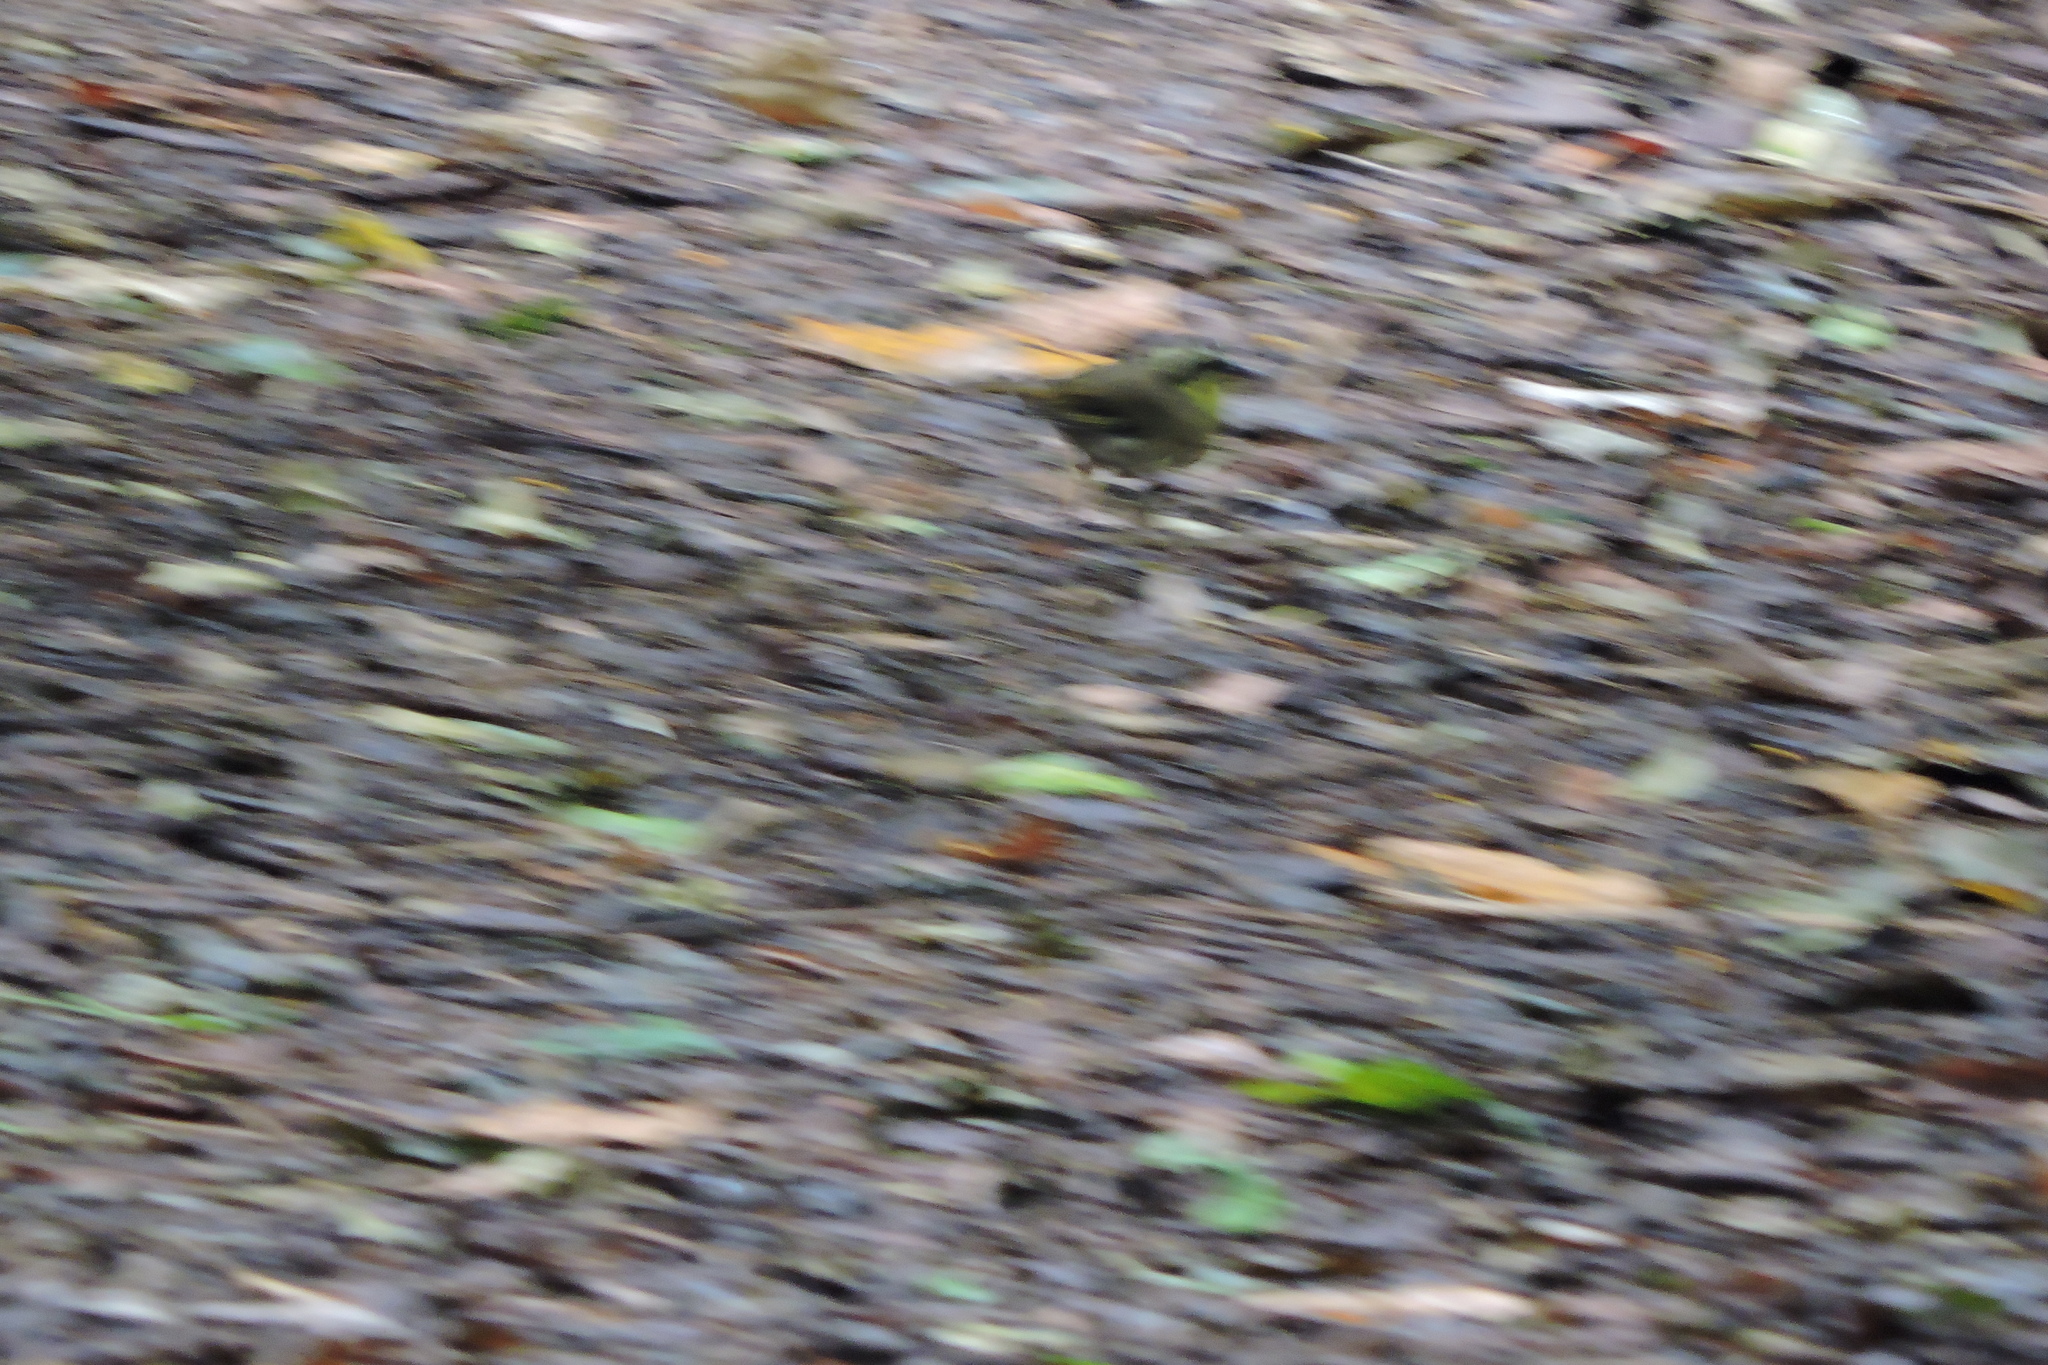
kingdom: Animalia
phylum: Chordata
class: Aves
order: Passeriformes
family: Acanthizidae
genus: Sericornis
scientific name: Sericornis citreogularis
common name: Yellow-throated scrubwren
